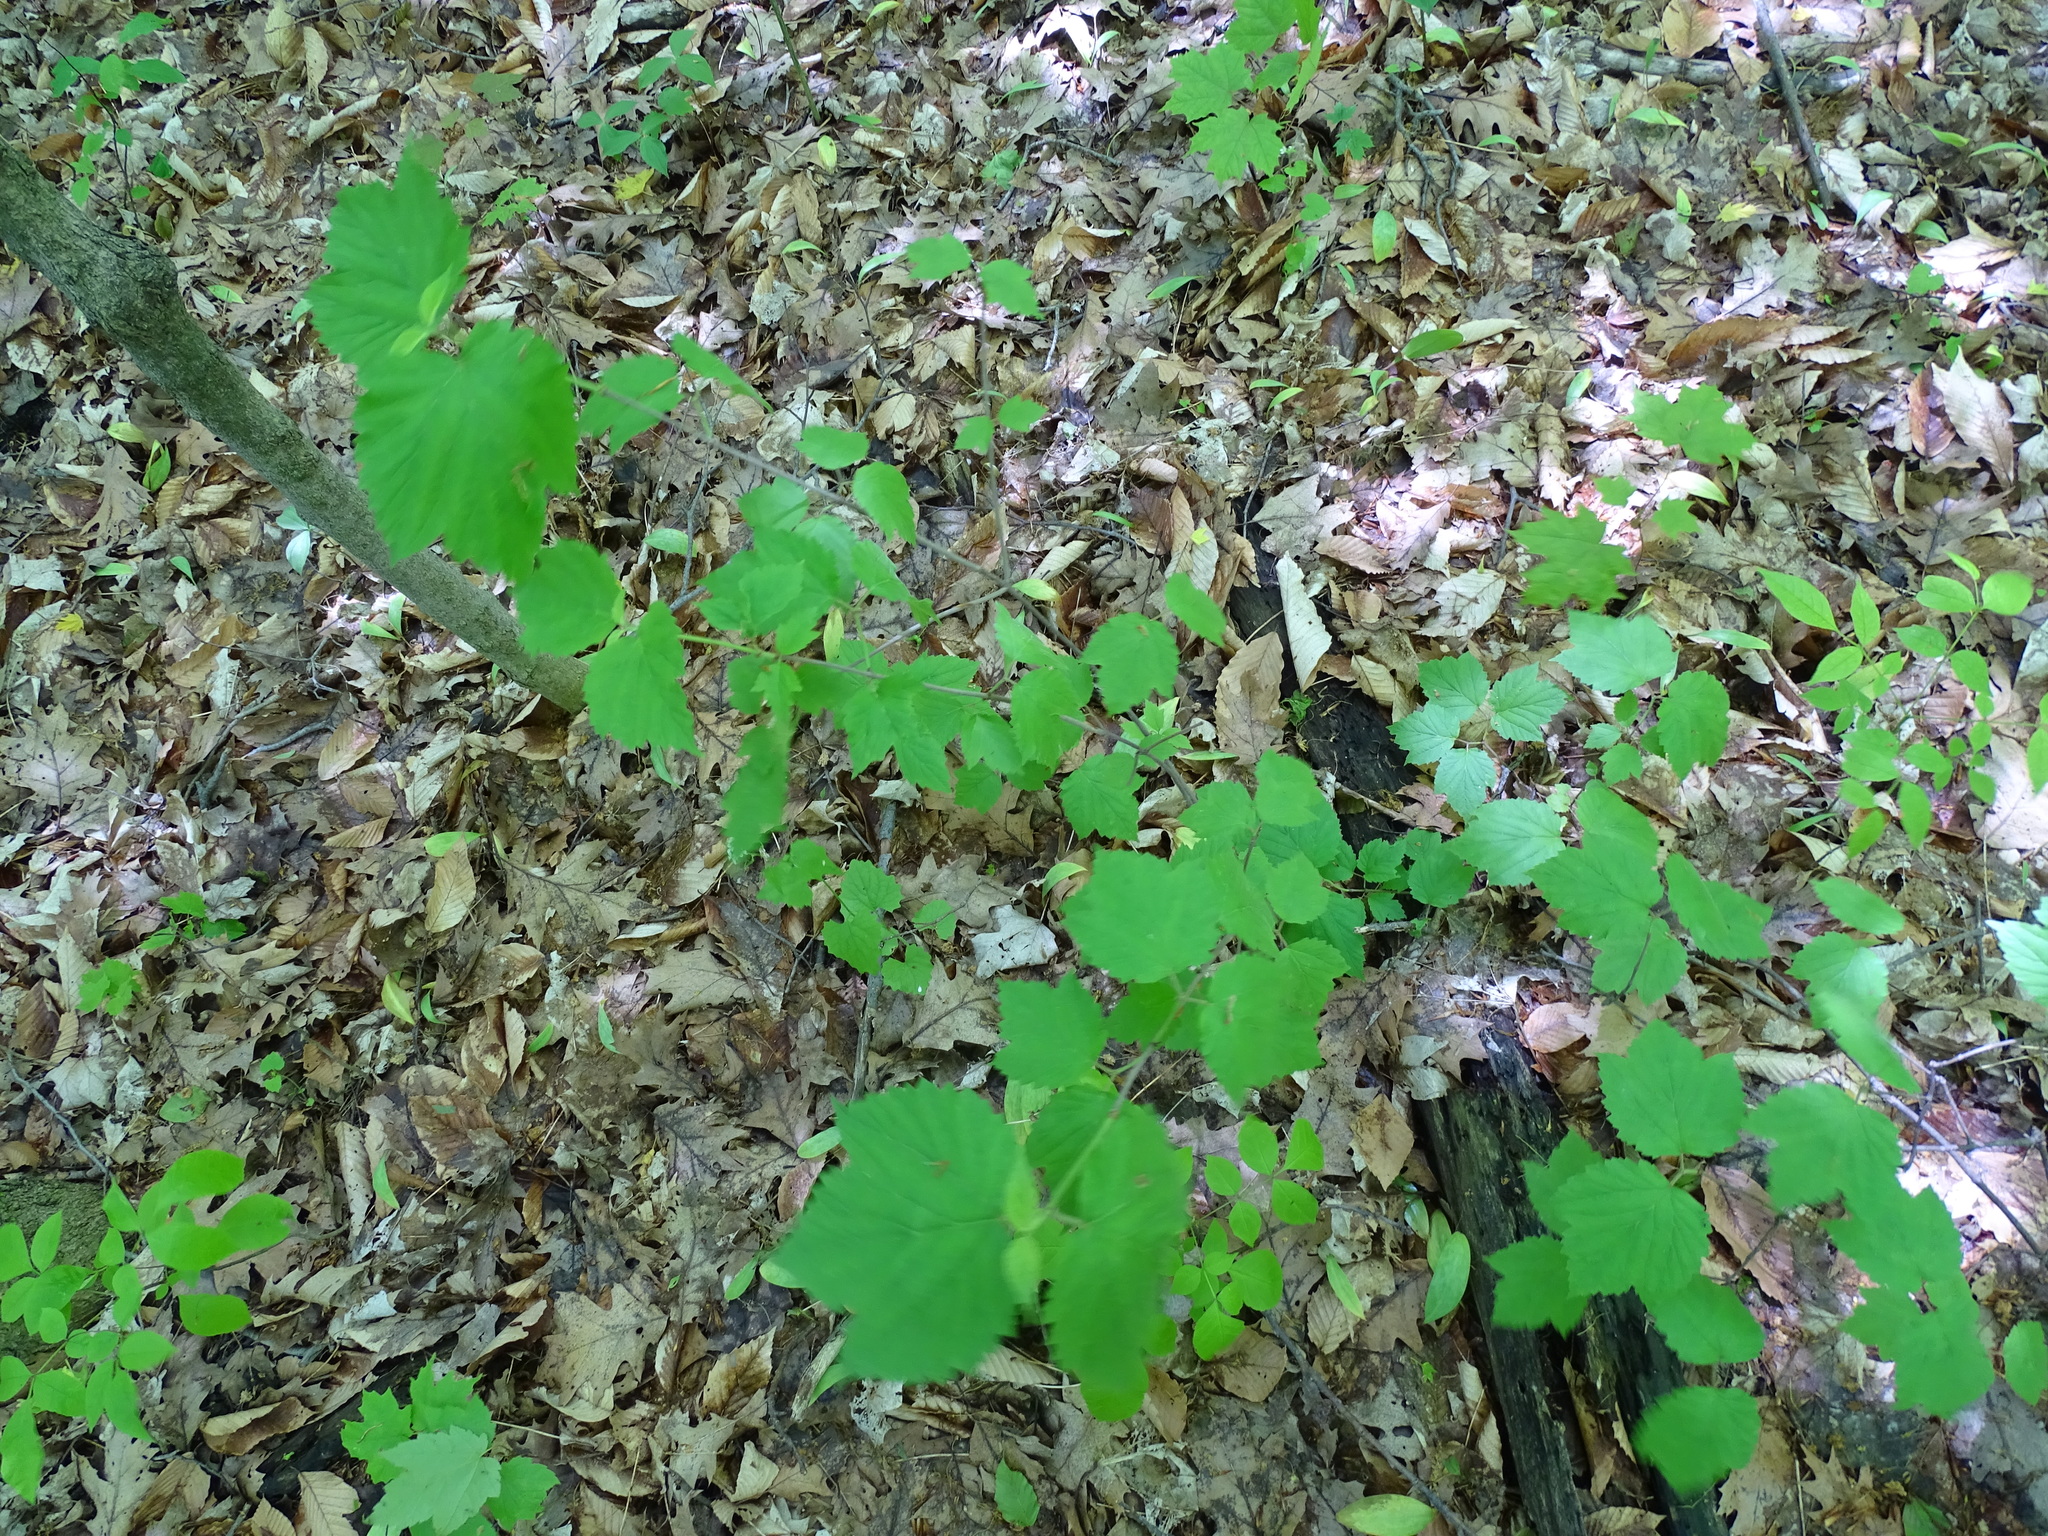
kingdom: Plantae
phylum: Tracheophyta
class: Magnoliopsida
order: Dipsacales
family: Viburnaceae
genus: Viburnum
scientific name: Viburnum acerifolium
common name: Dockmackie
